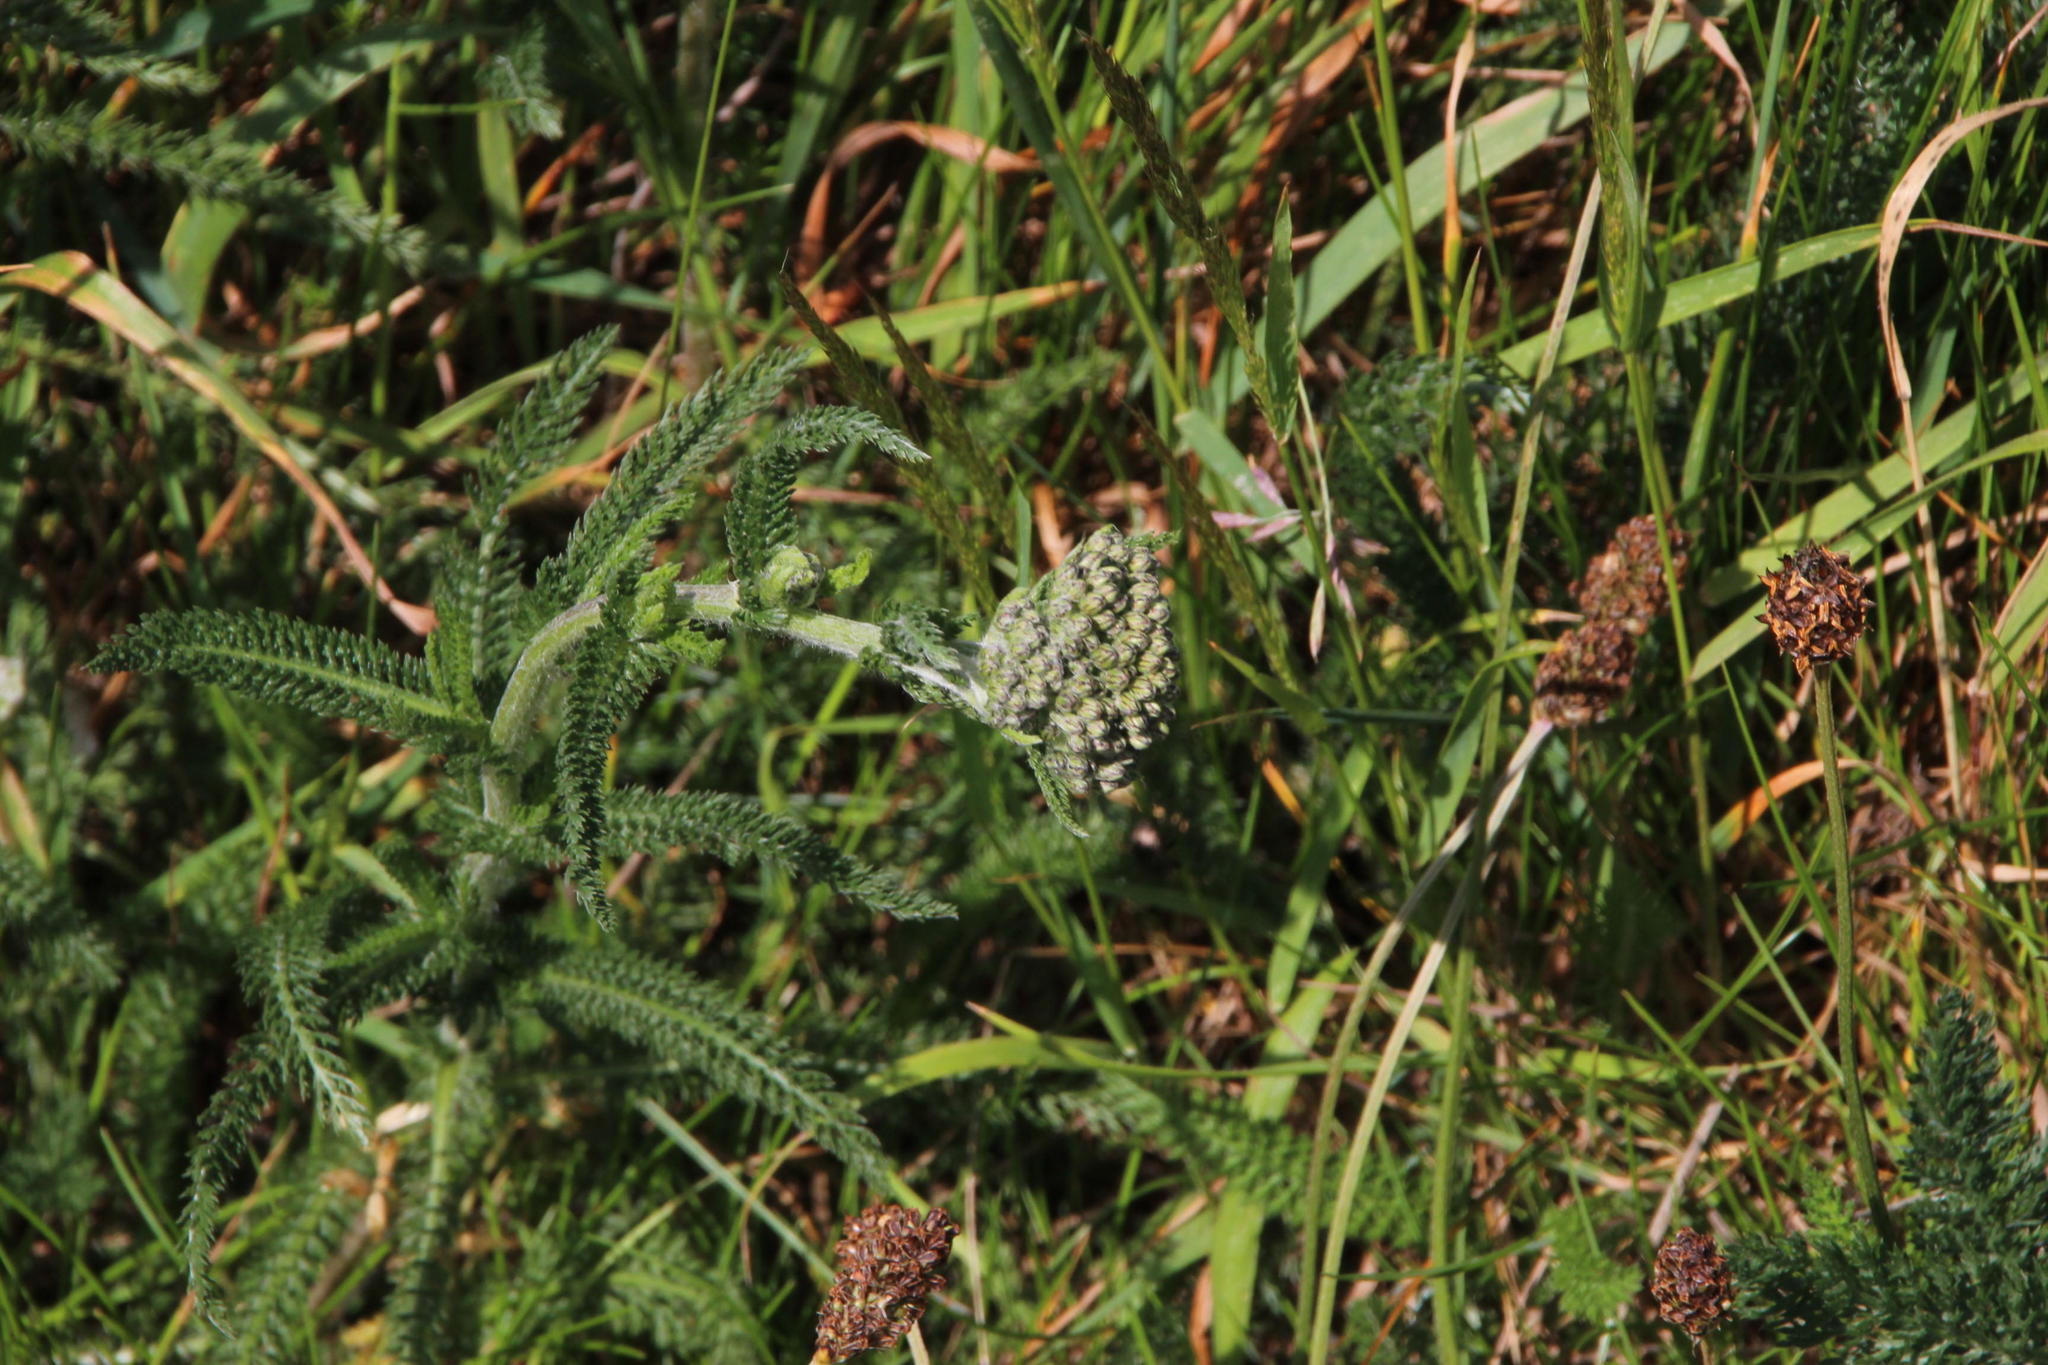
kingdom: Plantae
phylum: Tracheophyta
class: Magnoliopsida
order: Asterales
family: Asteraceae
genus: Achillea
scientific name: Achillea millefolium
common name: Yarrow
